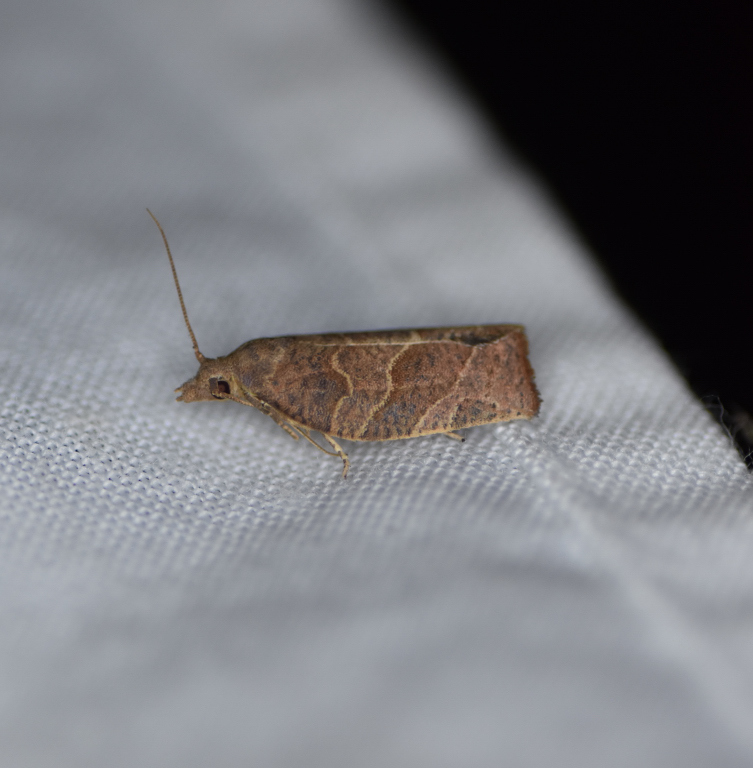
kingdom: Animalia
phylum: Arthropoda
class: Insecta
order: Lepidoptera
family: Tortricidae
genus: Pandemis
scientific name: Pandemis canadana
